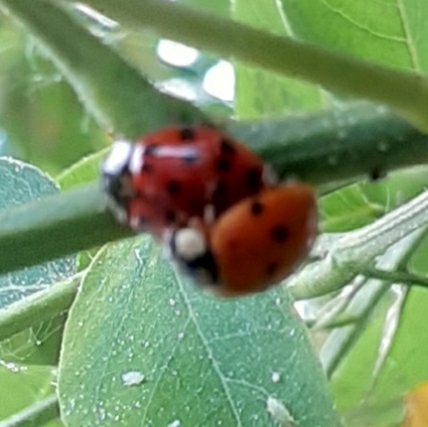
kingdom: Animalia
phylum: Arthropoda
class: Insecta
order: Coleoptera
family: Coccinellidae
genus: Harmonia
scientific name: Harmonia axyridis
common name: Harlequin ladybird
